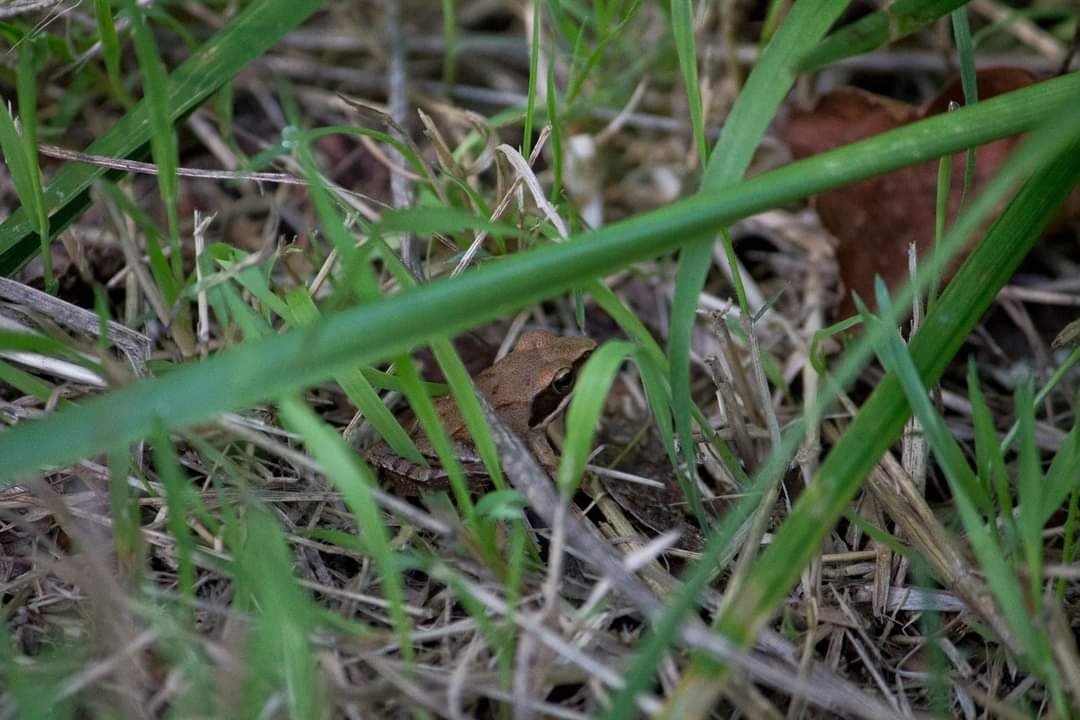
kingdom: Animalia
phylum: Chordata
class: Amphibia
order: Anura
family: Ranidae
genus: Rana
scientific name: Rana dalmatina
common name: Agile frog
